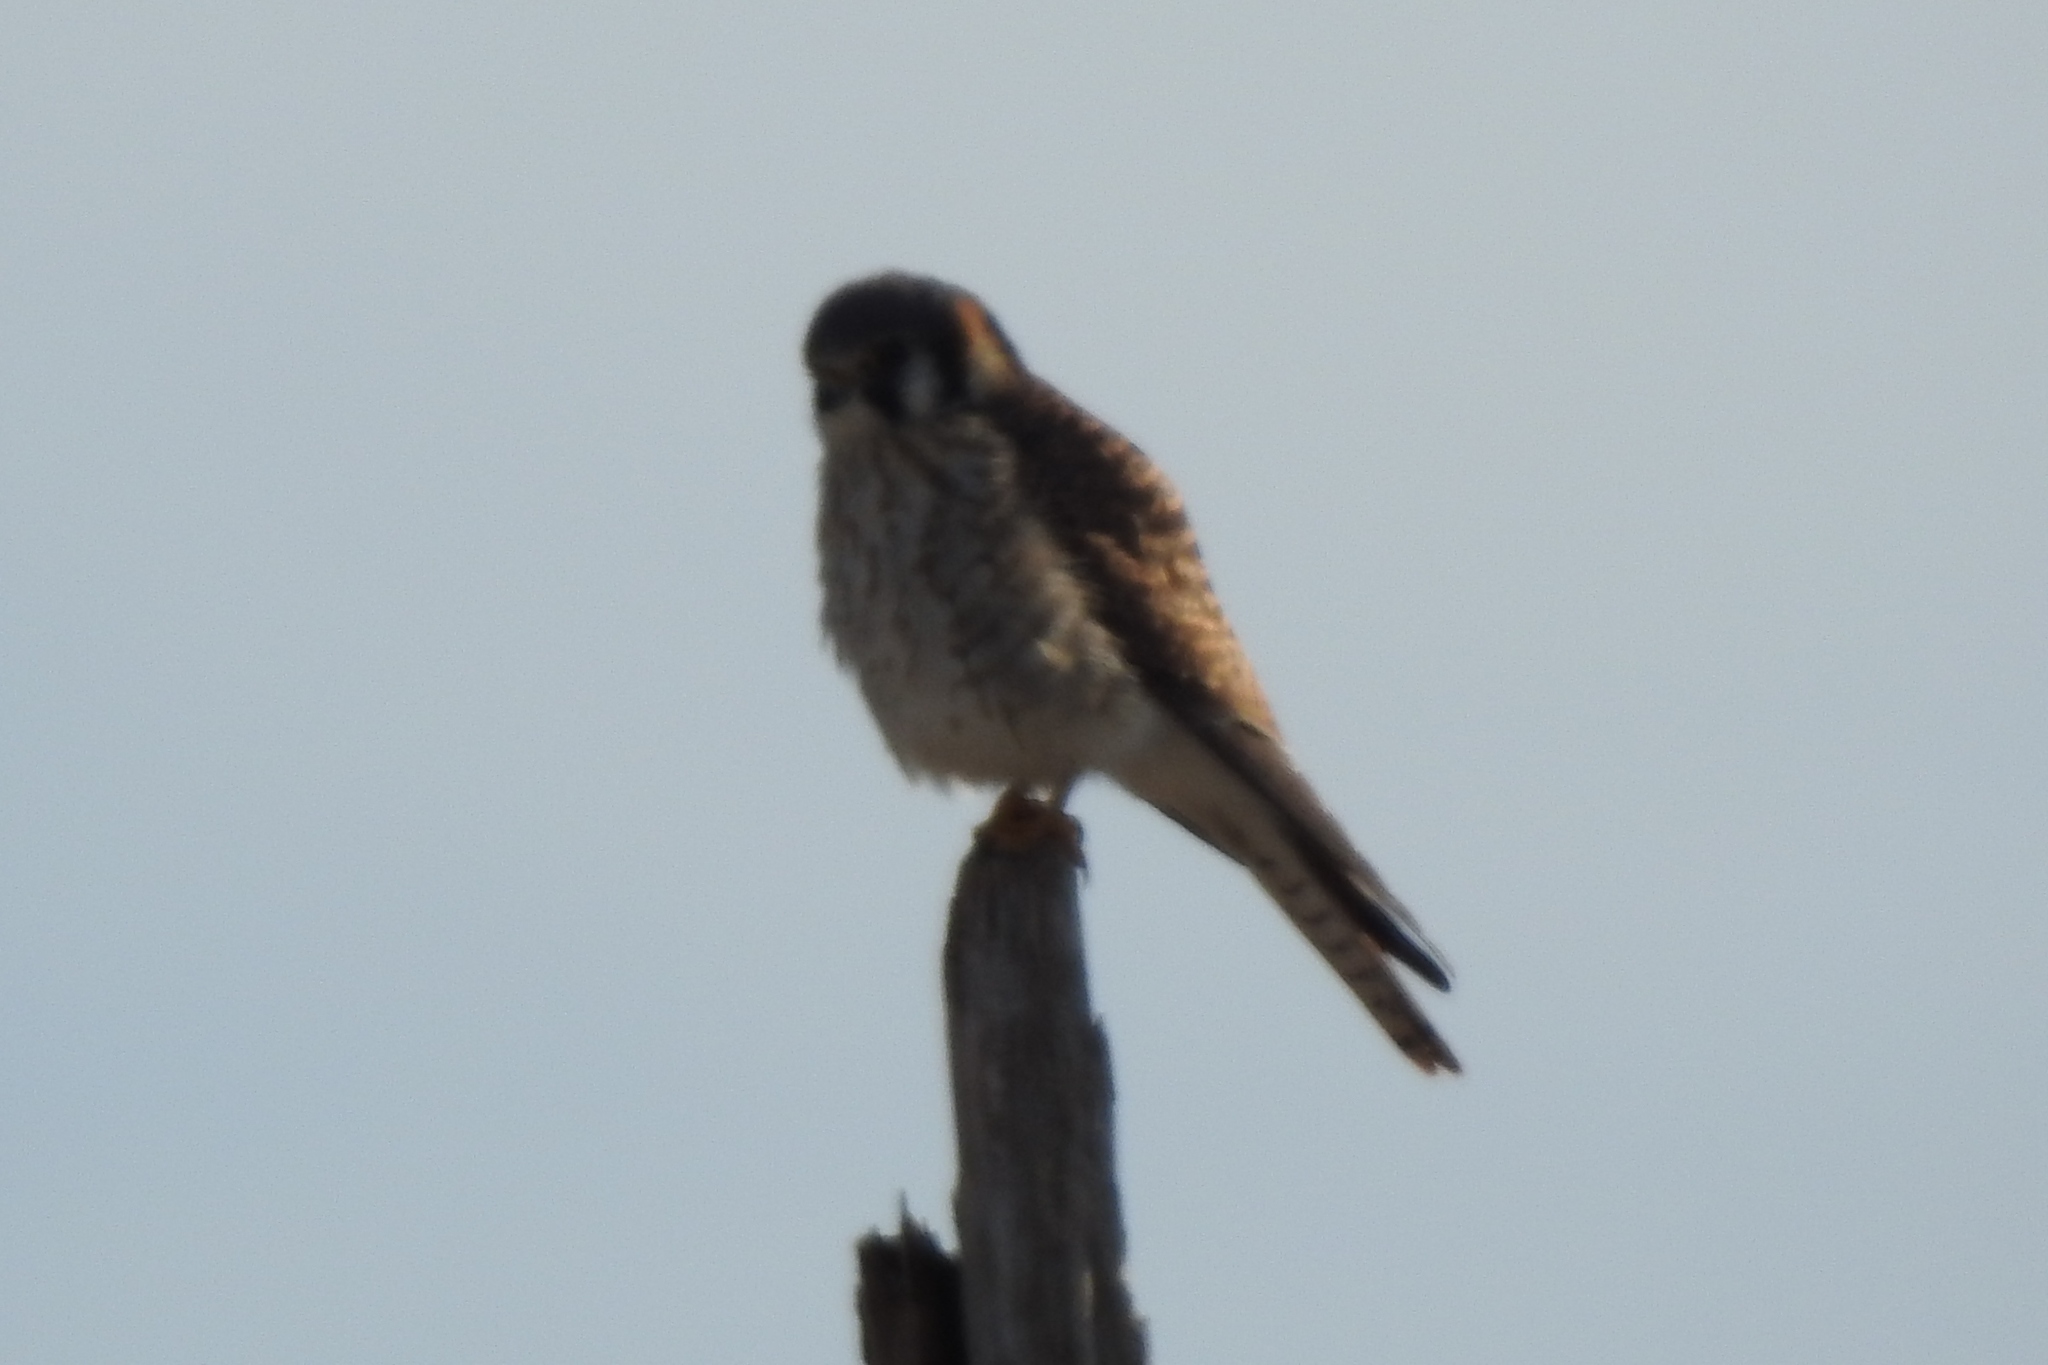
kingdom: Animalia
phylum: Chordata
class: Aves
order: Falconiformes
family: Falconidae
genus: Falco
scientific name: Falco sparverius
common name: American kestrel
